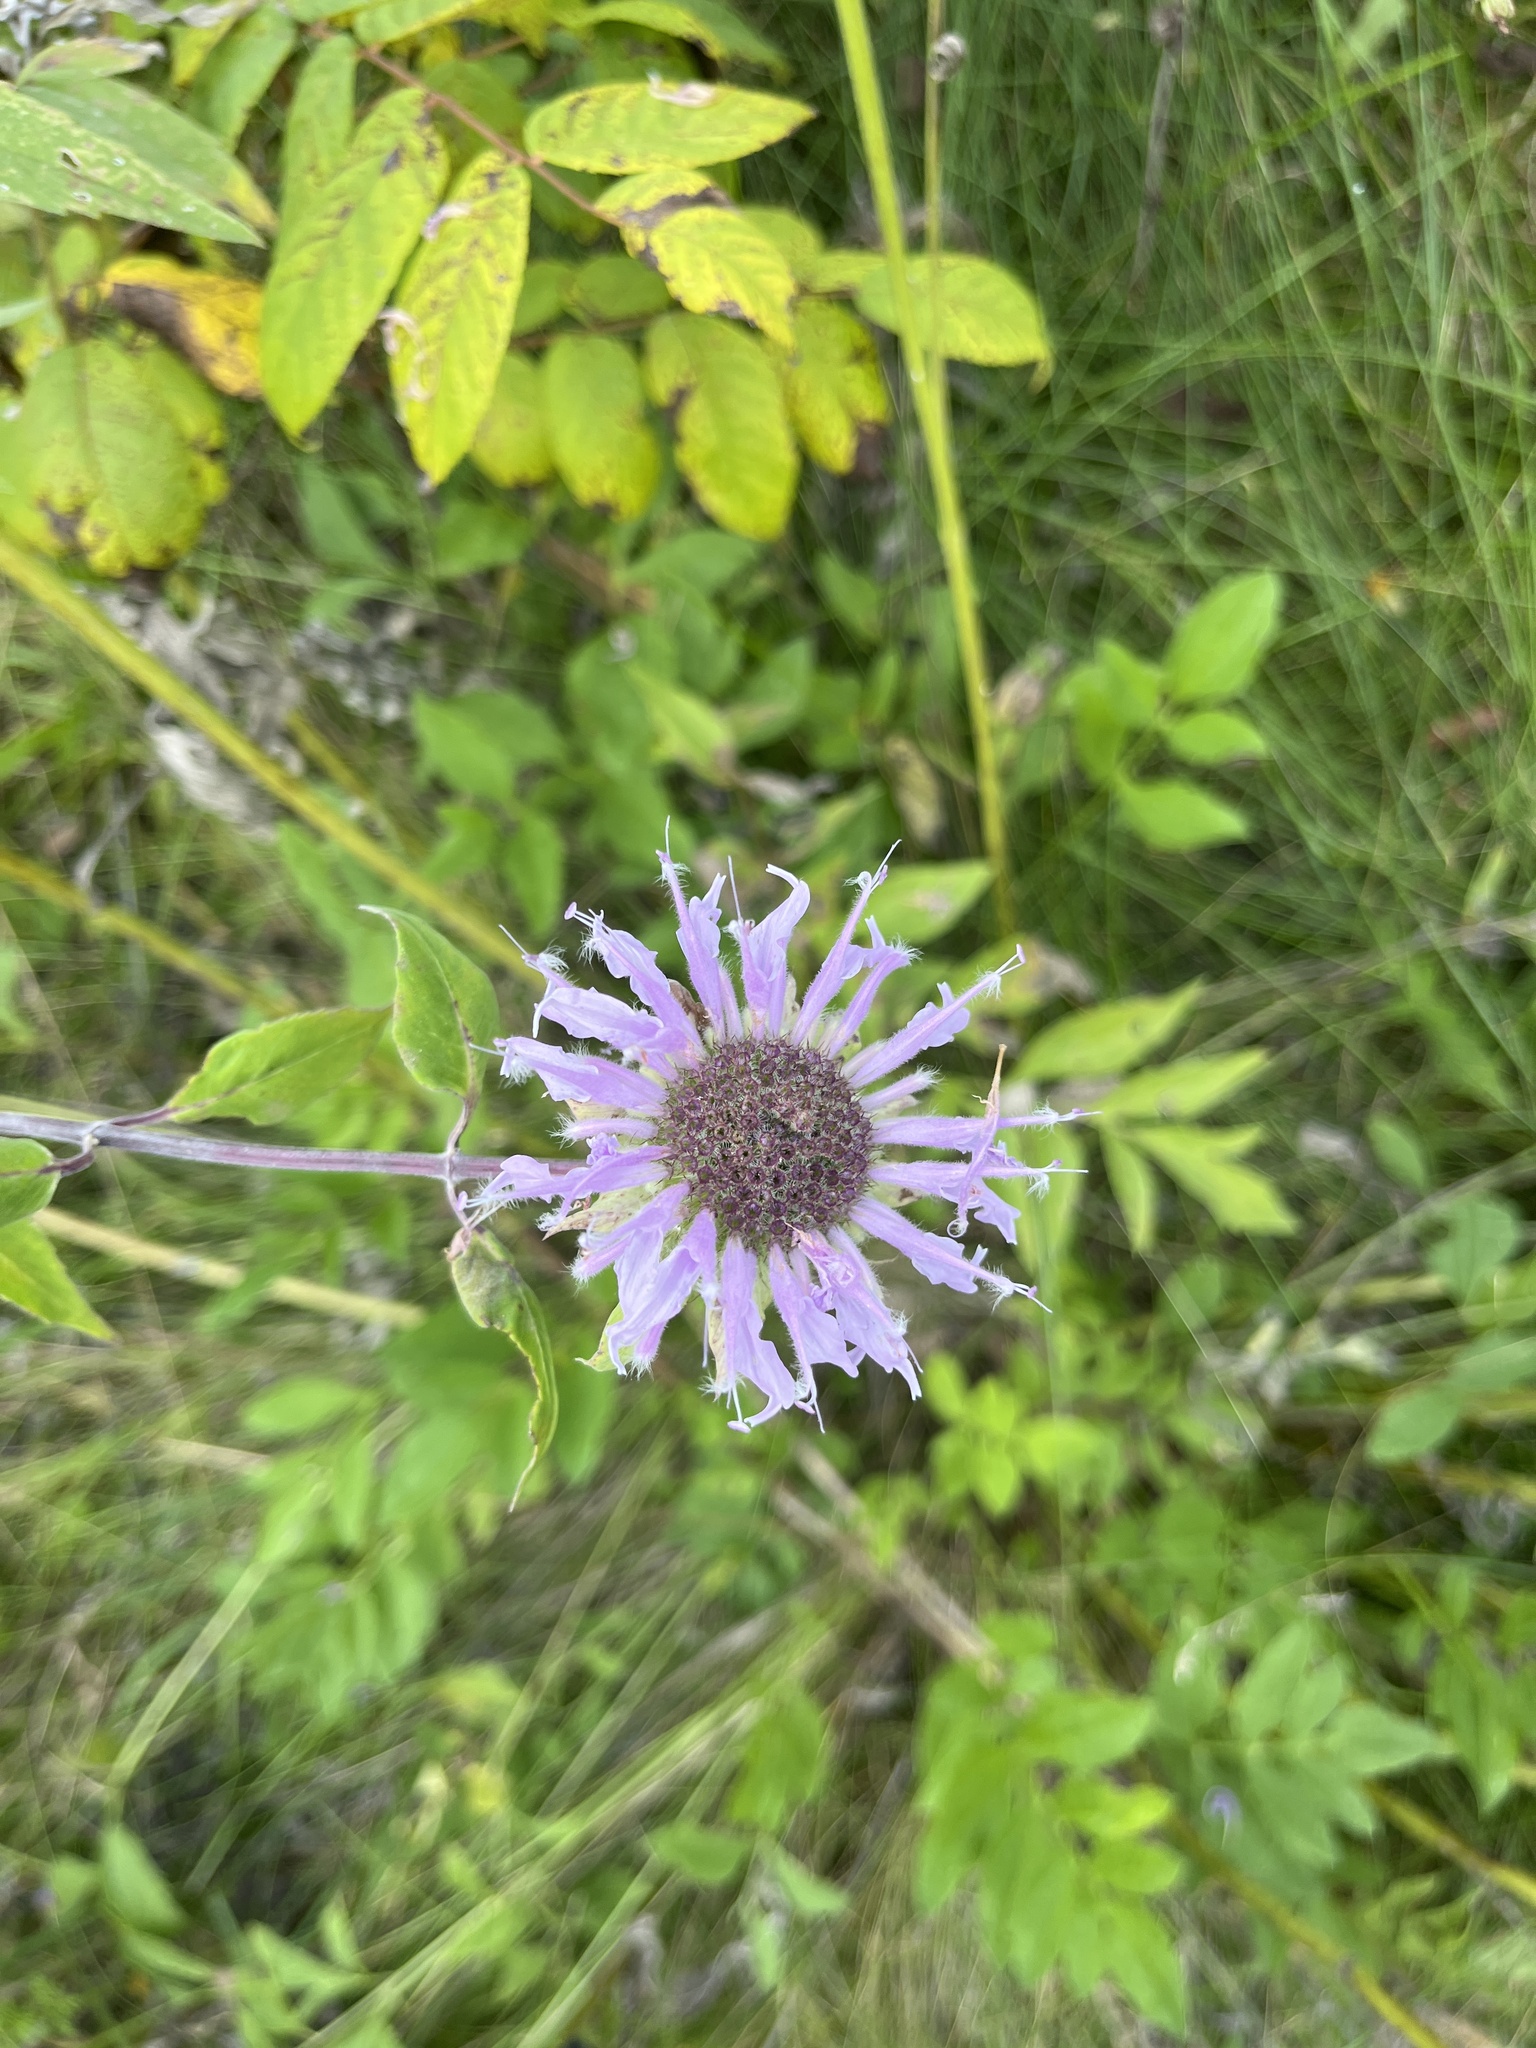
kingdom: Plantae
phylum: Tracheophyta
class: Magnoliopsida
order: Lamiales
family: Lamiaceae
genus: Monarda
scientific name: Monarda fistulosa
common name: Purple beebalm
